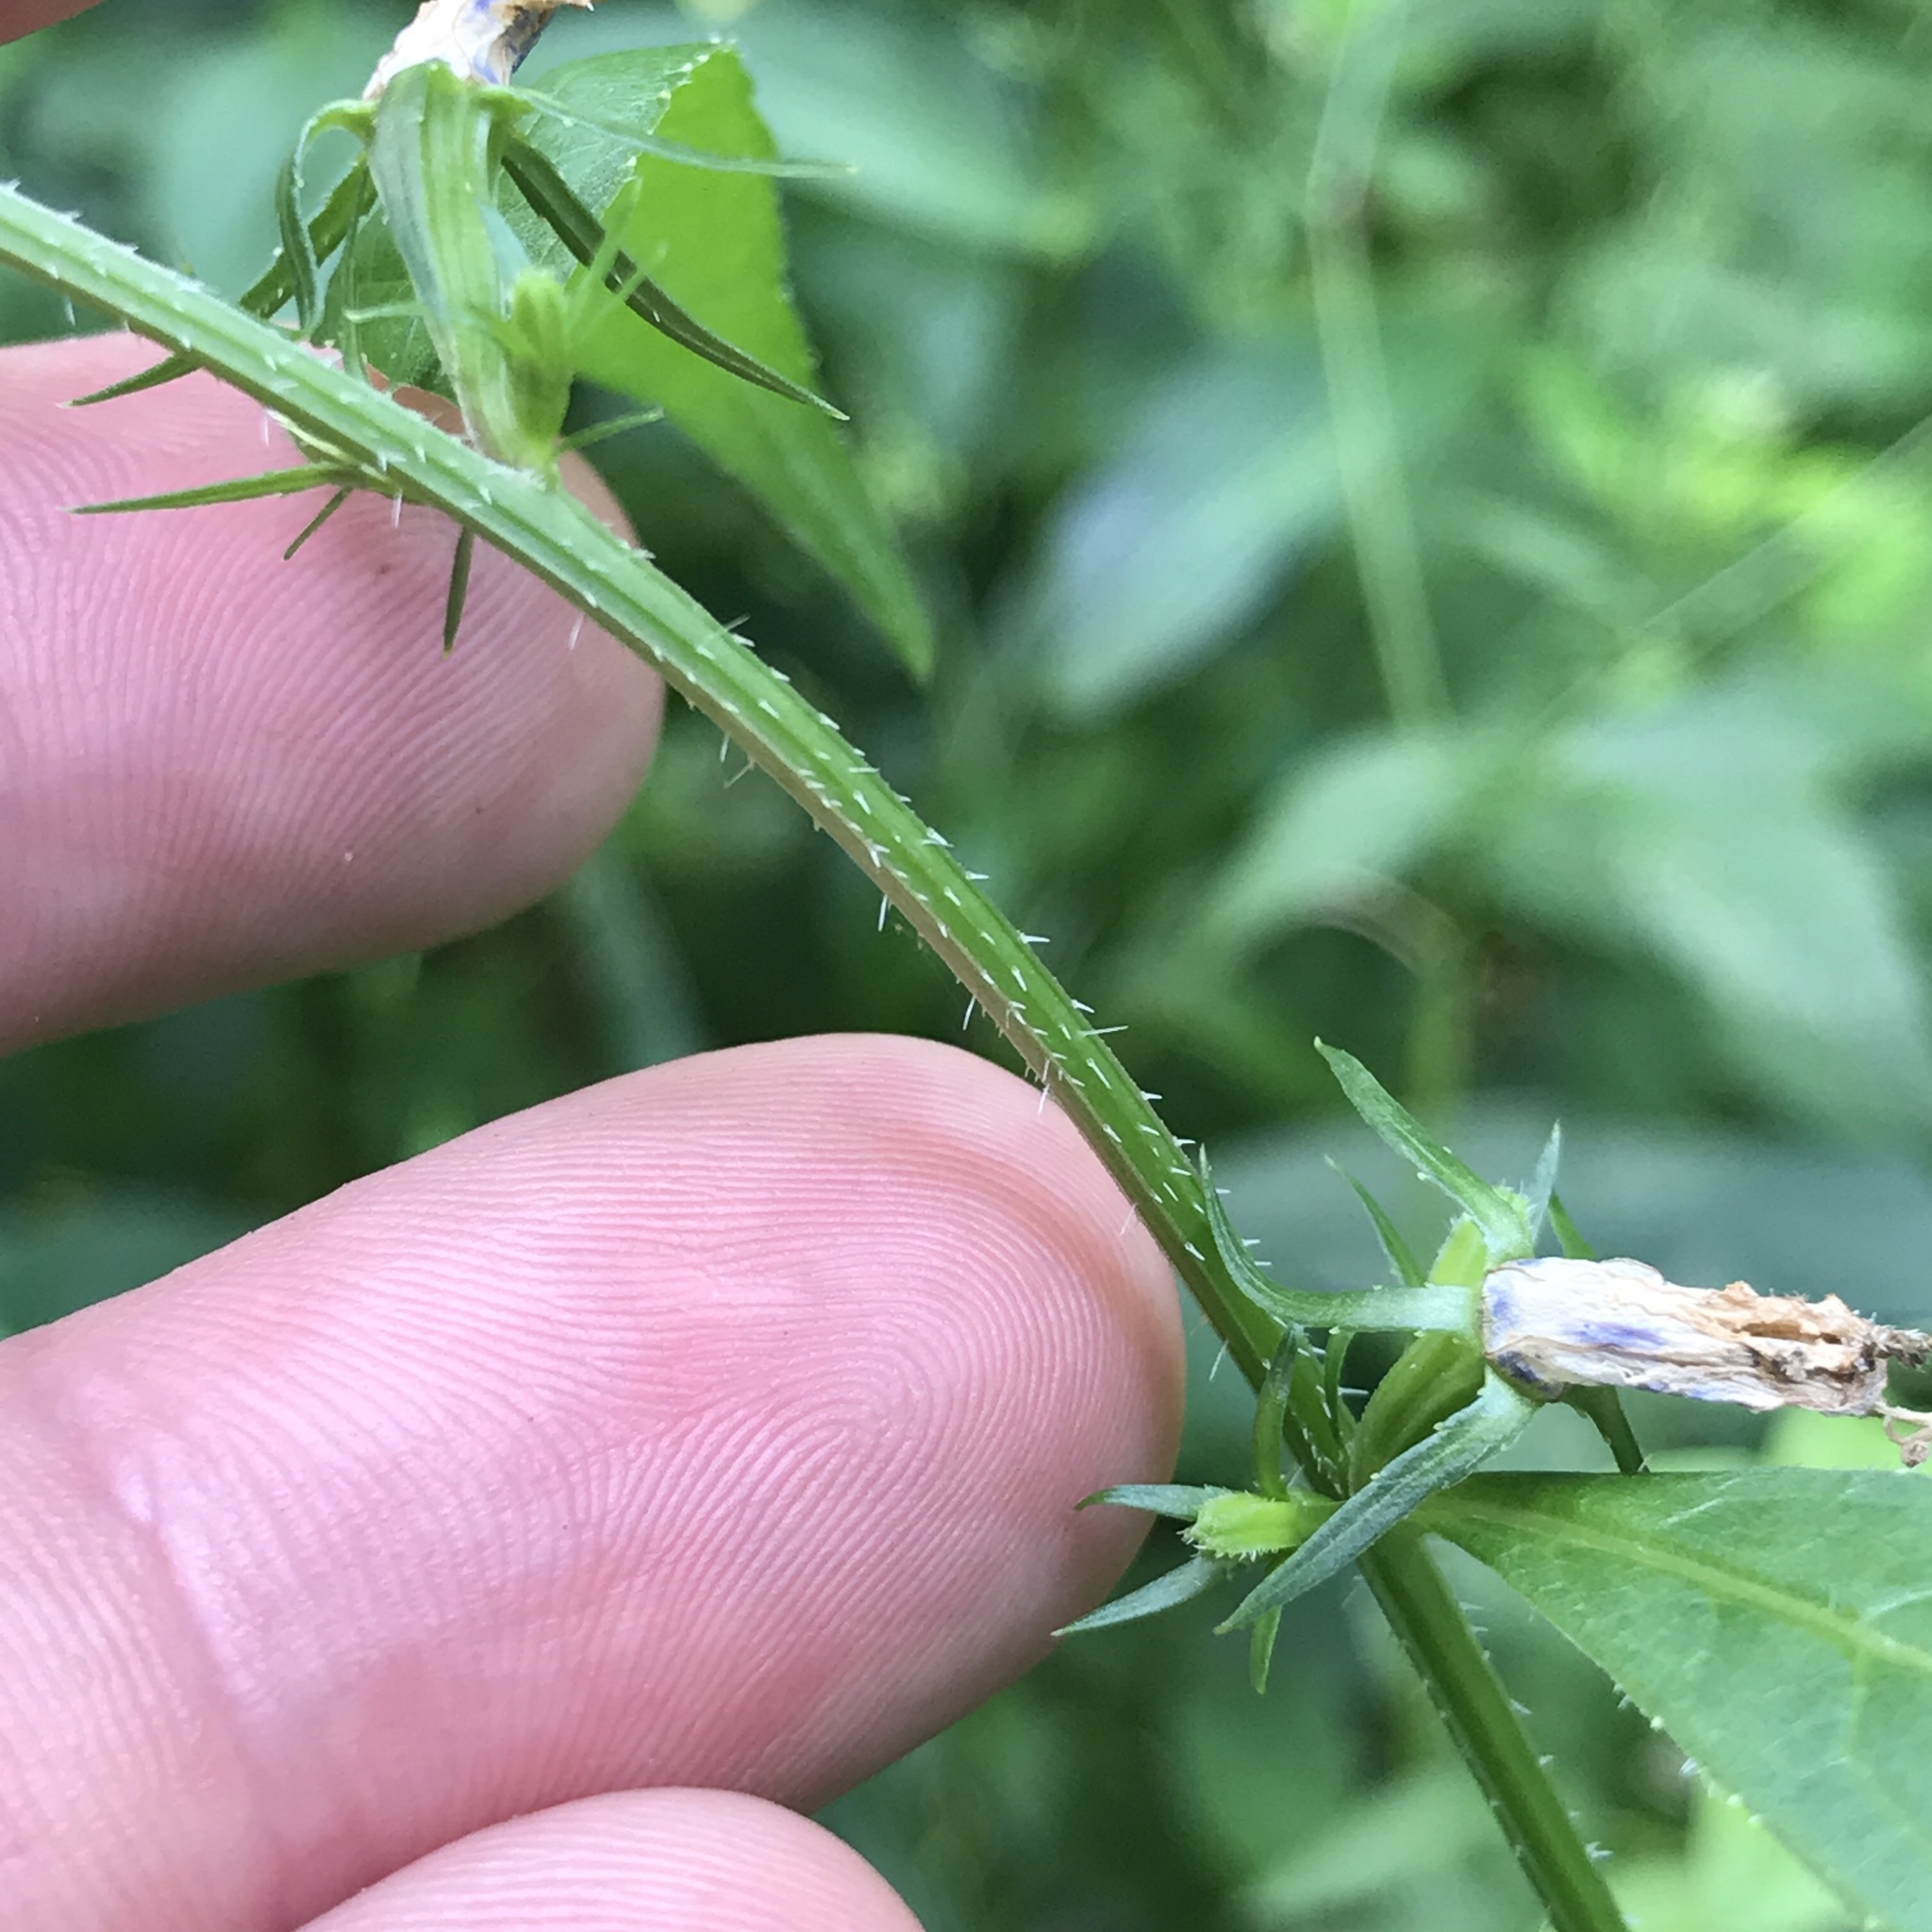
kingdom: Plantae
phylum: Tracheophyta
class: Magnoliopsida
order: Asterales
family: Campanulaceae
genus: Campanulastrum
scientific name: Campanulastrum americanum
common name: American bellflower
